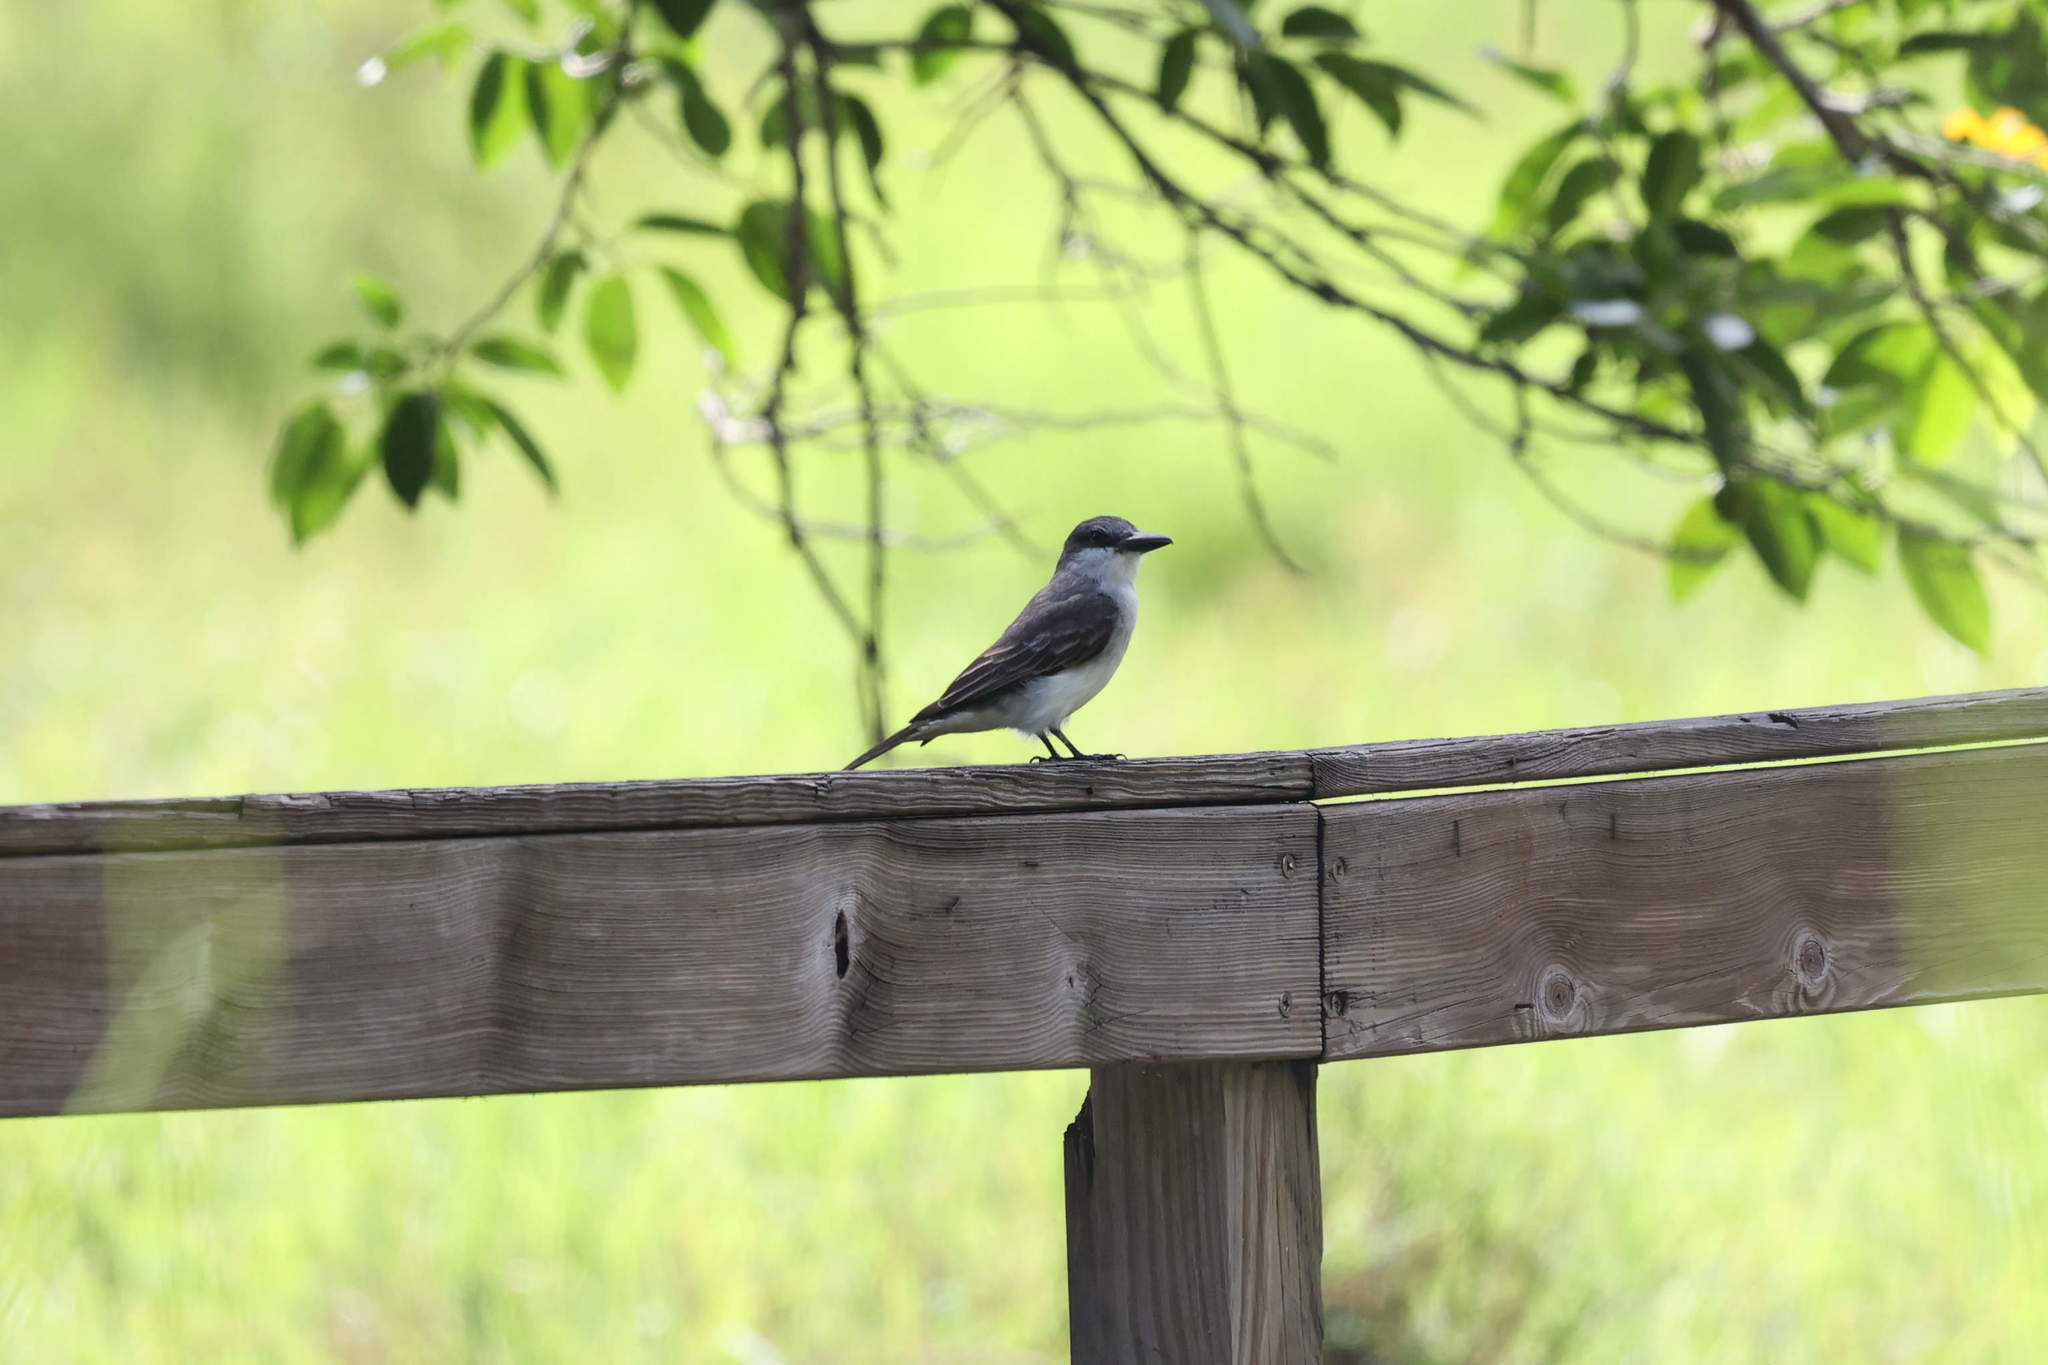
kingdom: Animalia
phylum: Chordata
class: Aves
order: Passeriformes
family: Tyrannidae
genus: Tyrannus
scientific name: Tyrannus dominicensis
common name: Gray kingbird
